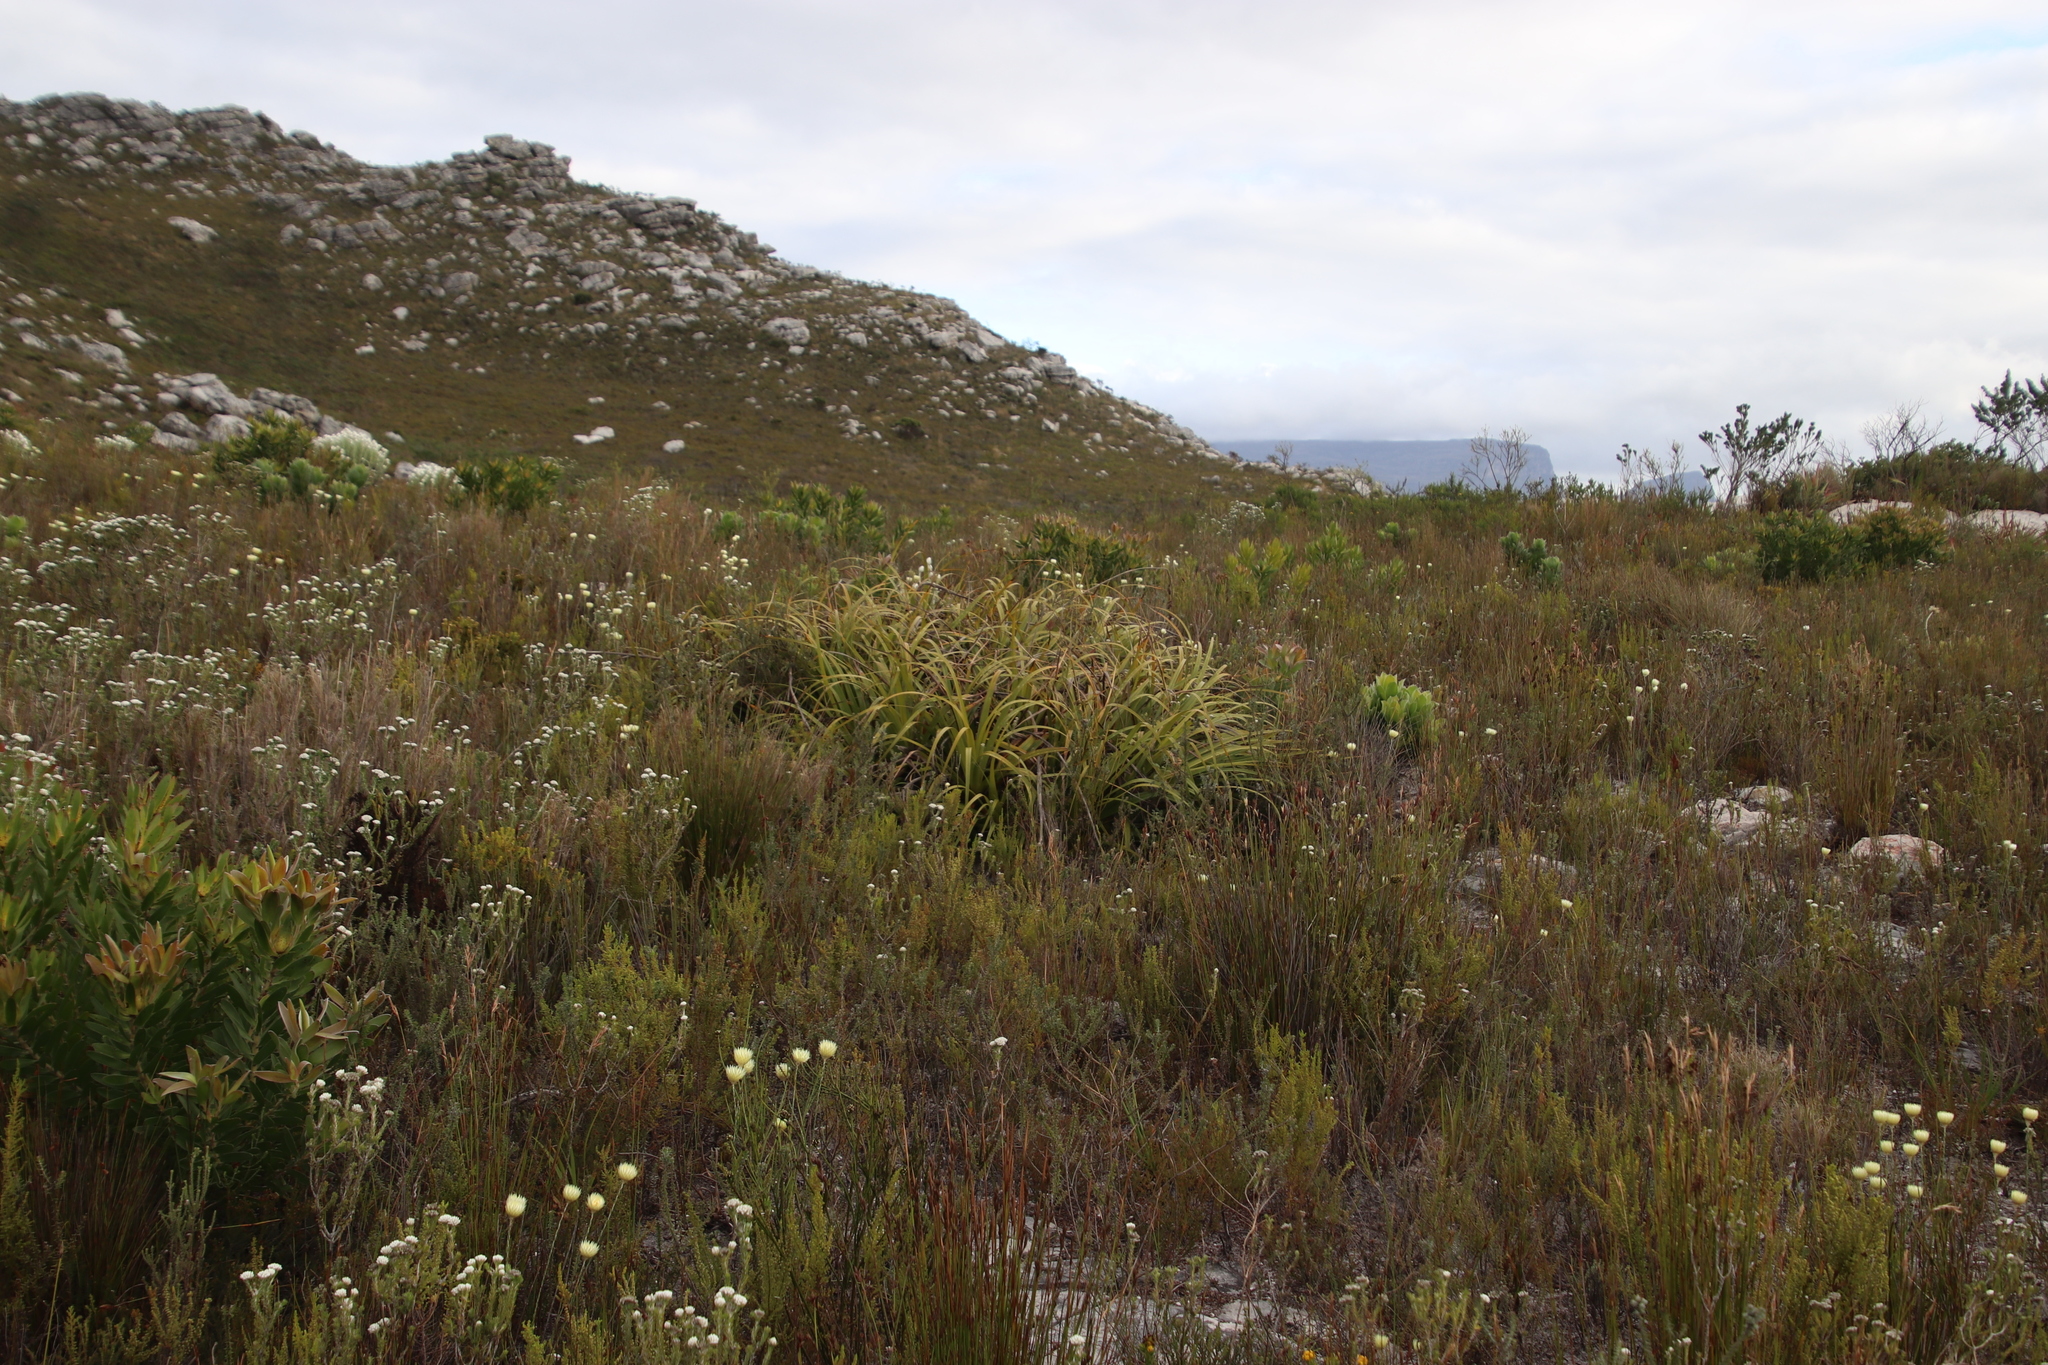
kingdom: Plantae
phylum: Tracheophyta
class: Liliopsida
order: Poales
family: Cyperaceae
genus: Tetraria
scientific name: Tetraria thermalis
